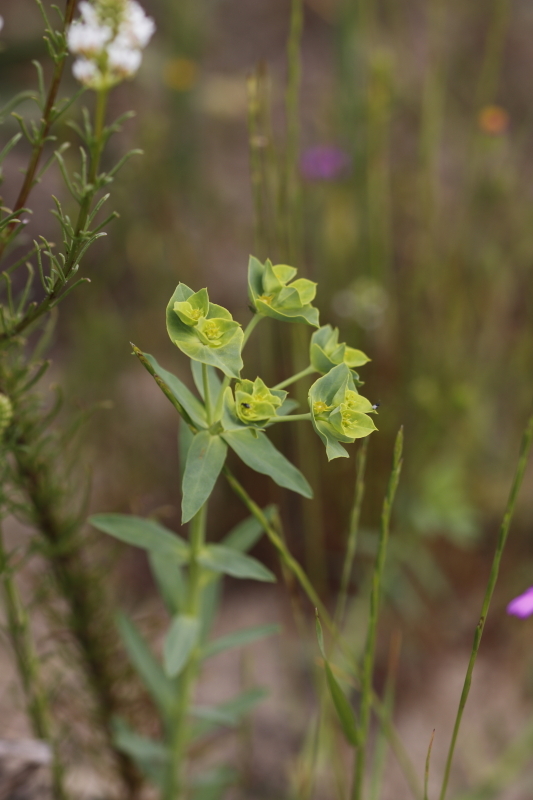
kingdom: Plantae
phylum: Tracheophyta
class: Magnoliopsida
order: Malpighiales
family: Euphorbiaceae
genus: Euphorbia
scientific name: Euphorbia terracina
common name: Geraldton carnation weed
